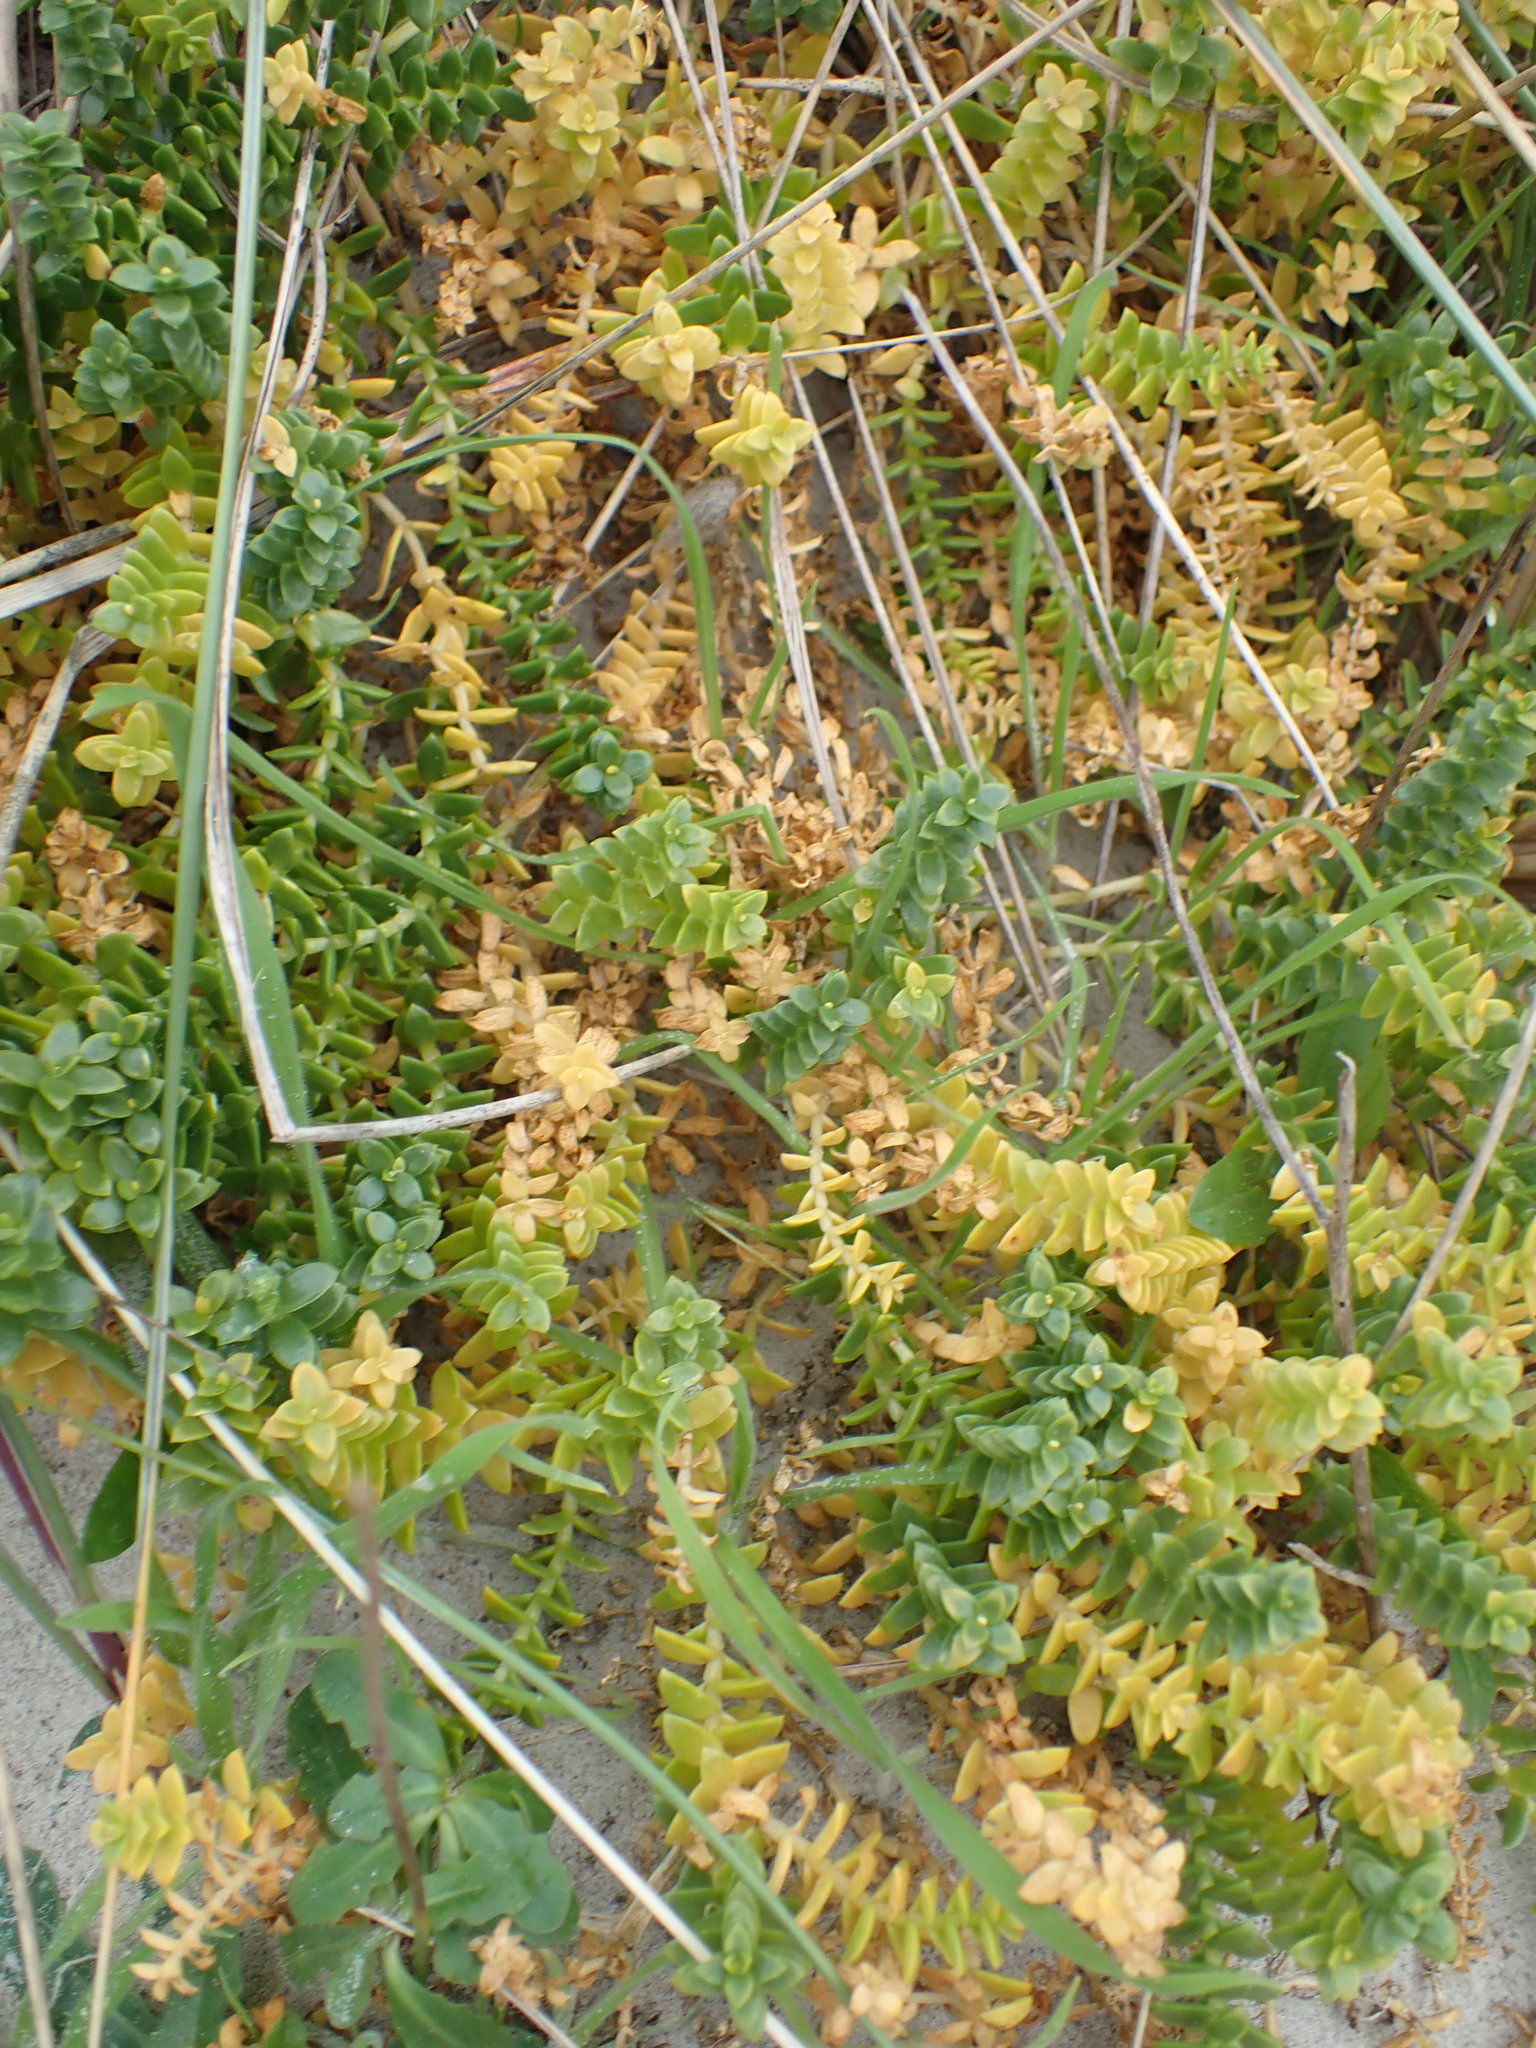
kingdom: Plantae
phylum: Tracheophyta
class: Magnoliopsida
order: Caryophyllales
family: Caryophyllaceae
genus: Honckenya
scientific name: Honckenya peploides
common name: Sea sandwort
